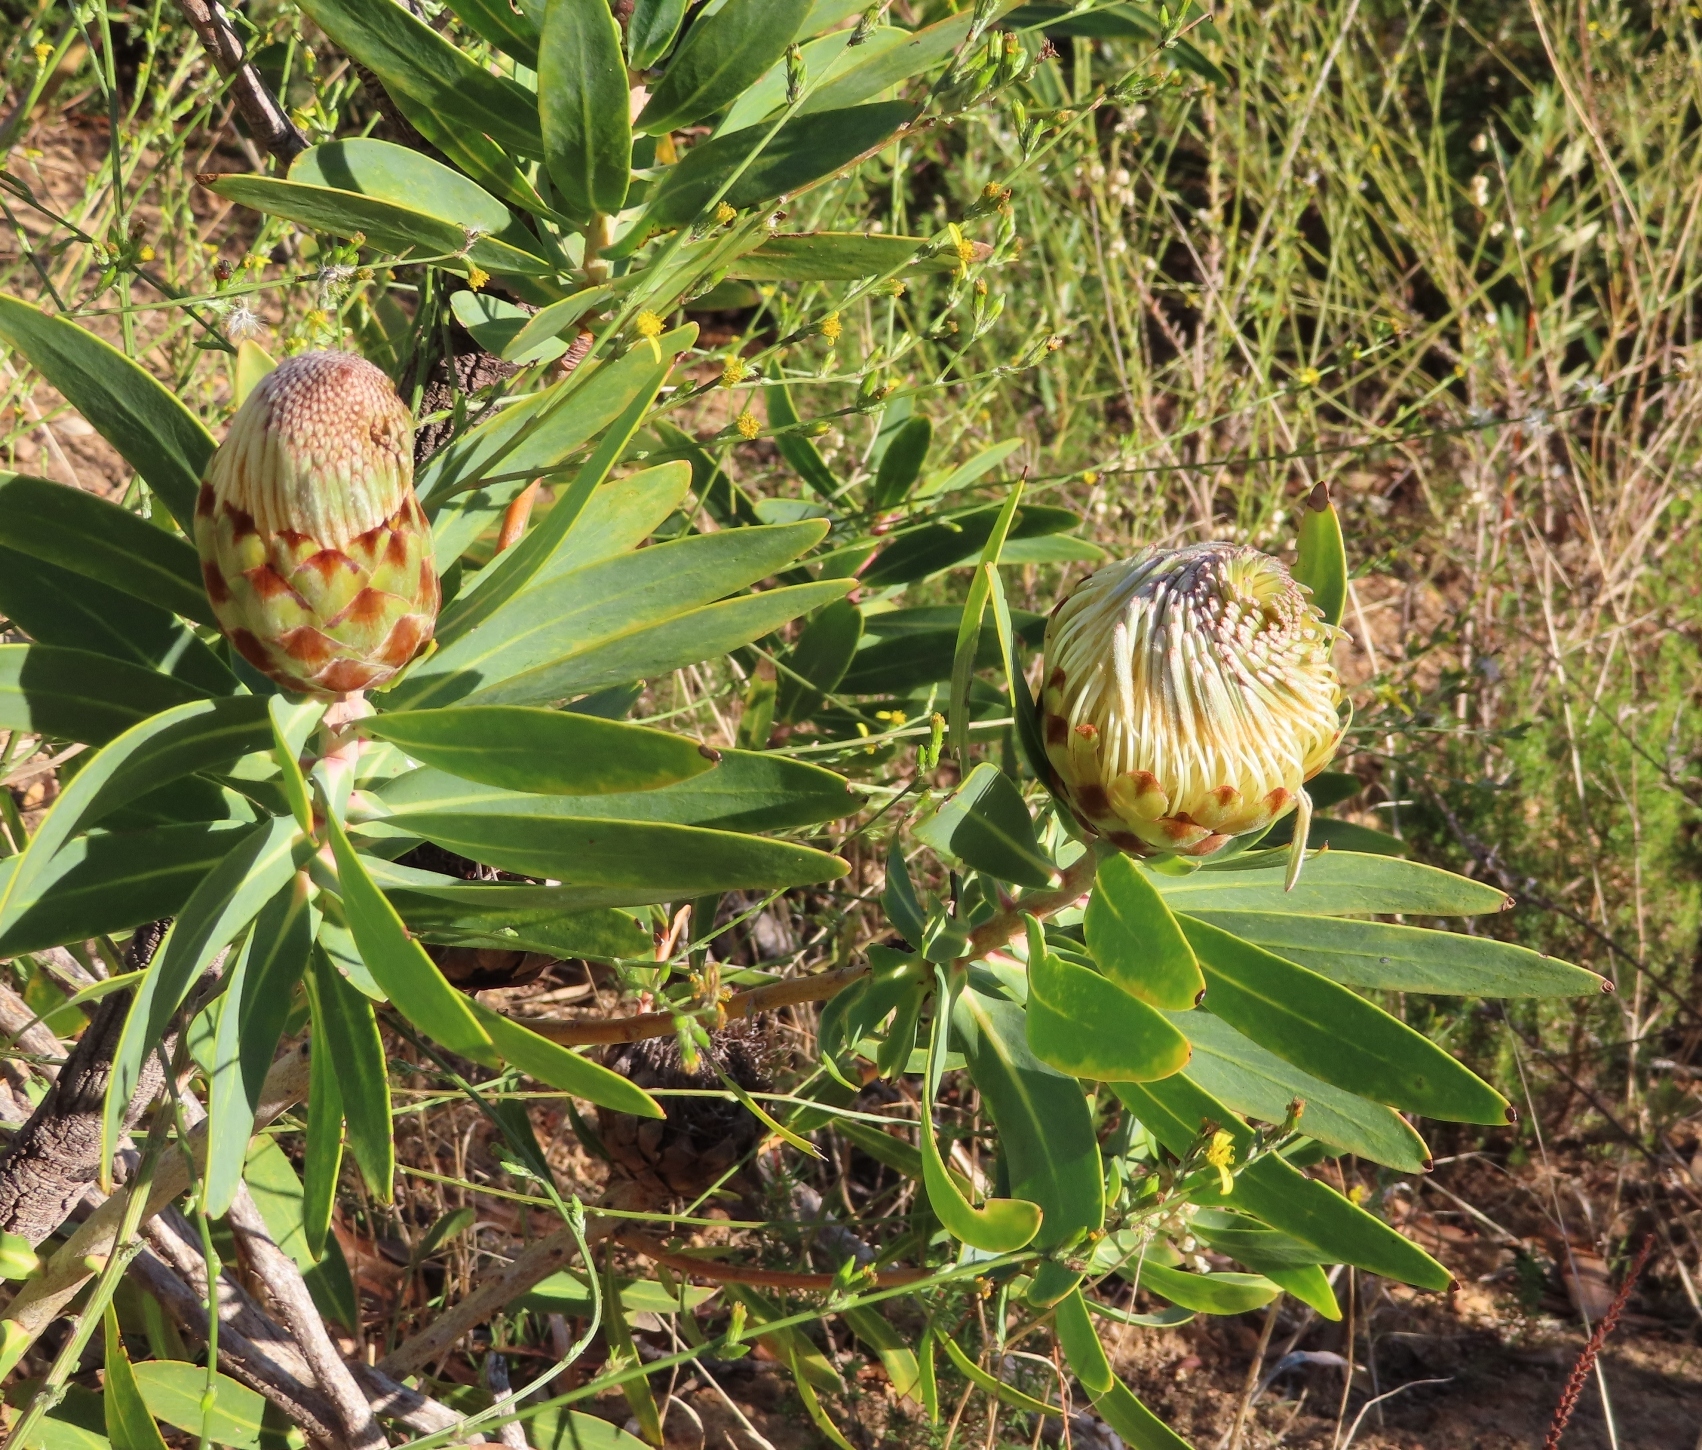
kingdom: Plantae
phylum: Tracheophyta
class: Magnoliopsida
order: Proteales
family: Proteaceae
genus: Protea
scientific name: Protea nitida
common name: Tree protea
